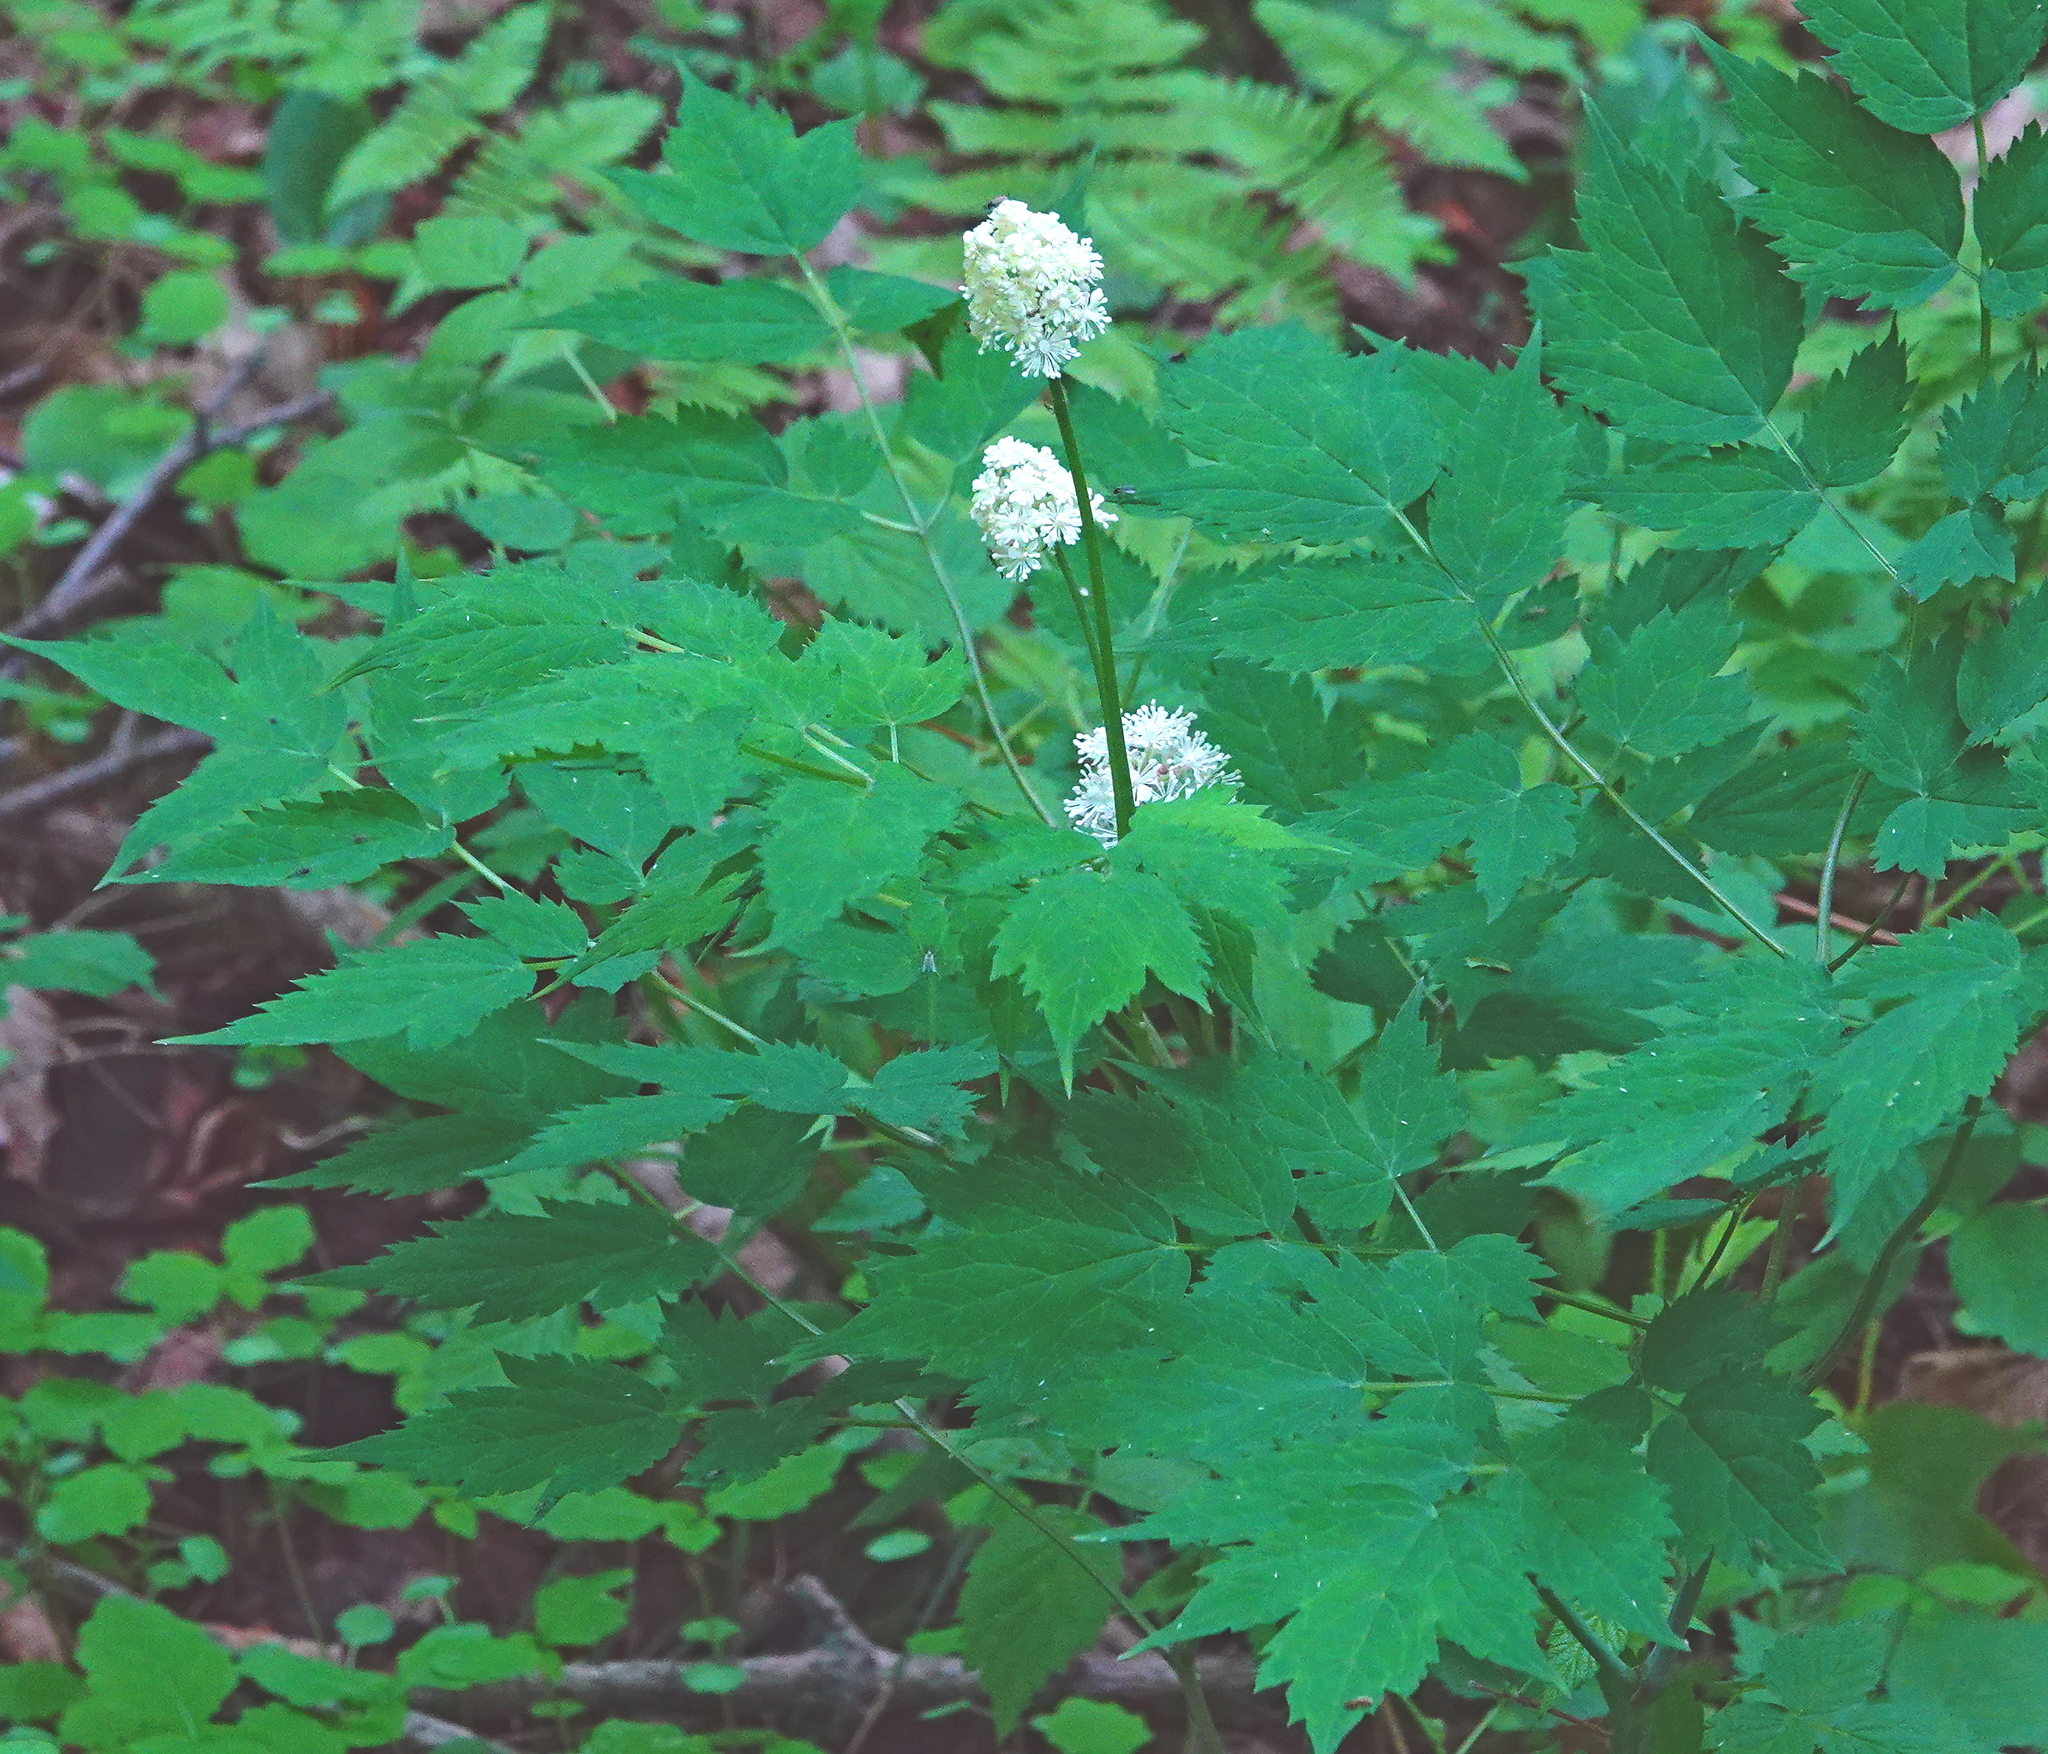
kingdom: Plantae
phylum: Tracheophyta
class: Magnoliopsida
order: Ranunculales
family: Ranunculaceae
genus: Actaea
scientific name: Actaea rubra
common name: Red baneberry
